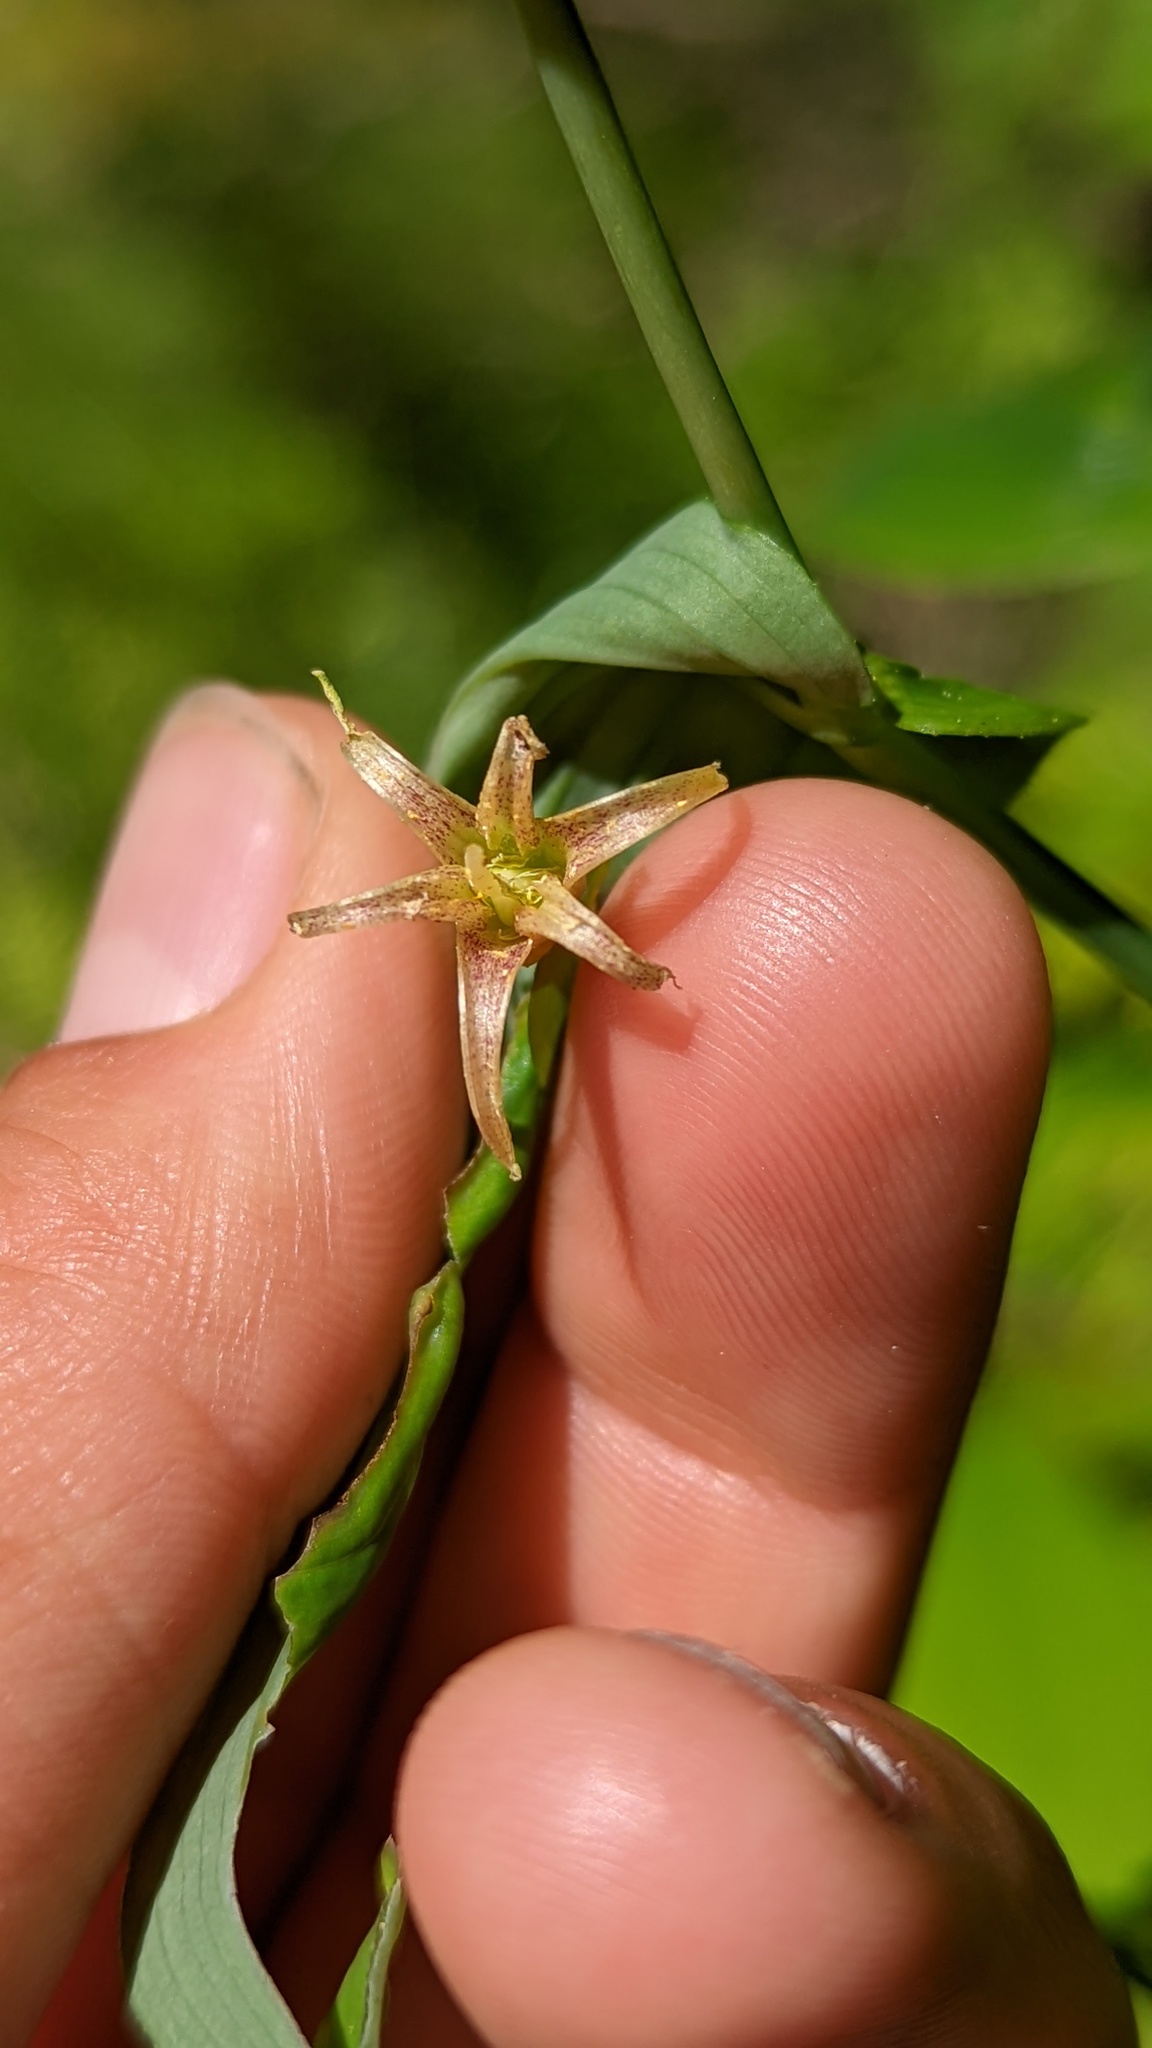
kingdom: Plantae
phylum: Tracheophyta
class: Liliopsida
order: Liliales
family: Liliaceae
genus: Streptopus
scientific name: Streptopus amplexifolius
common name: Clasp twisted stalk
